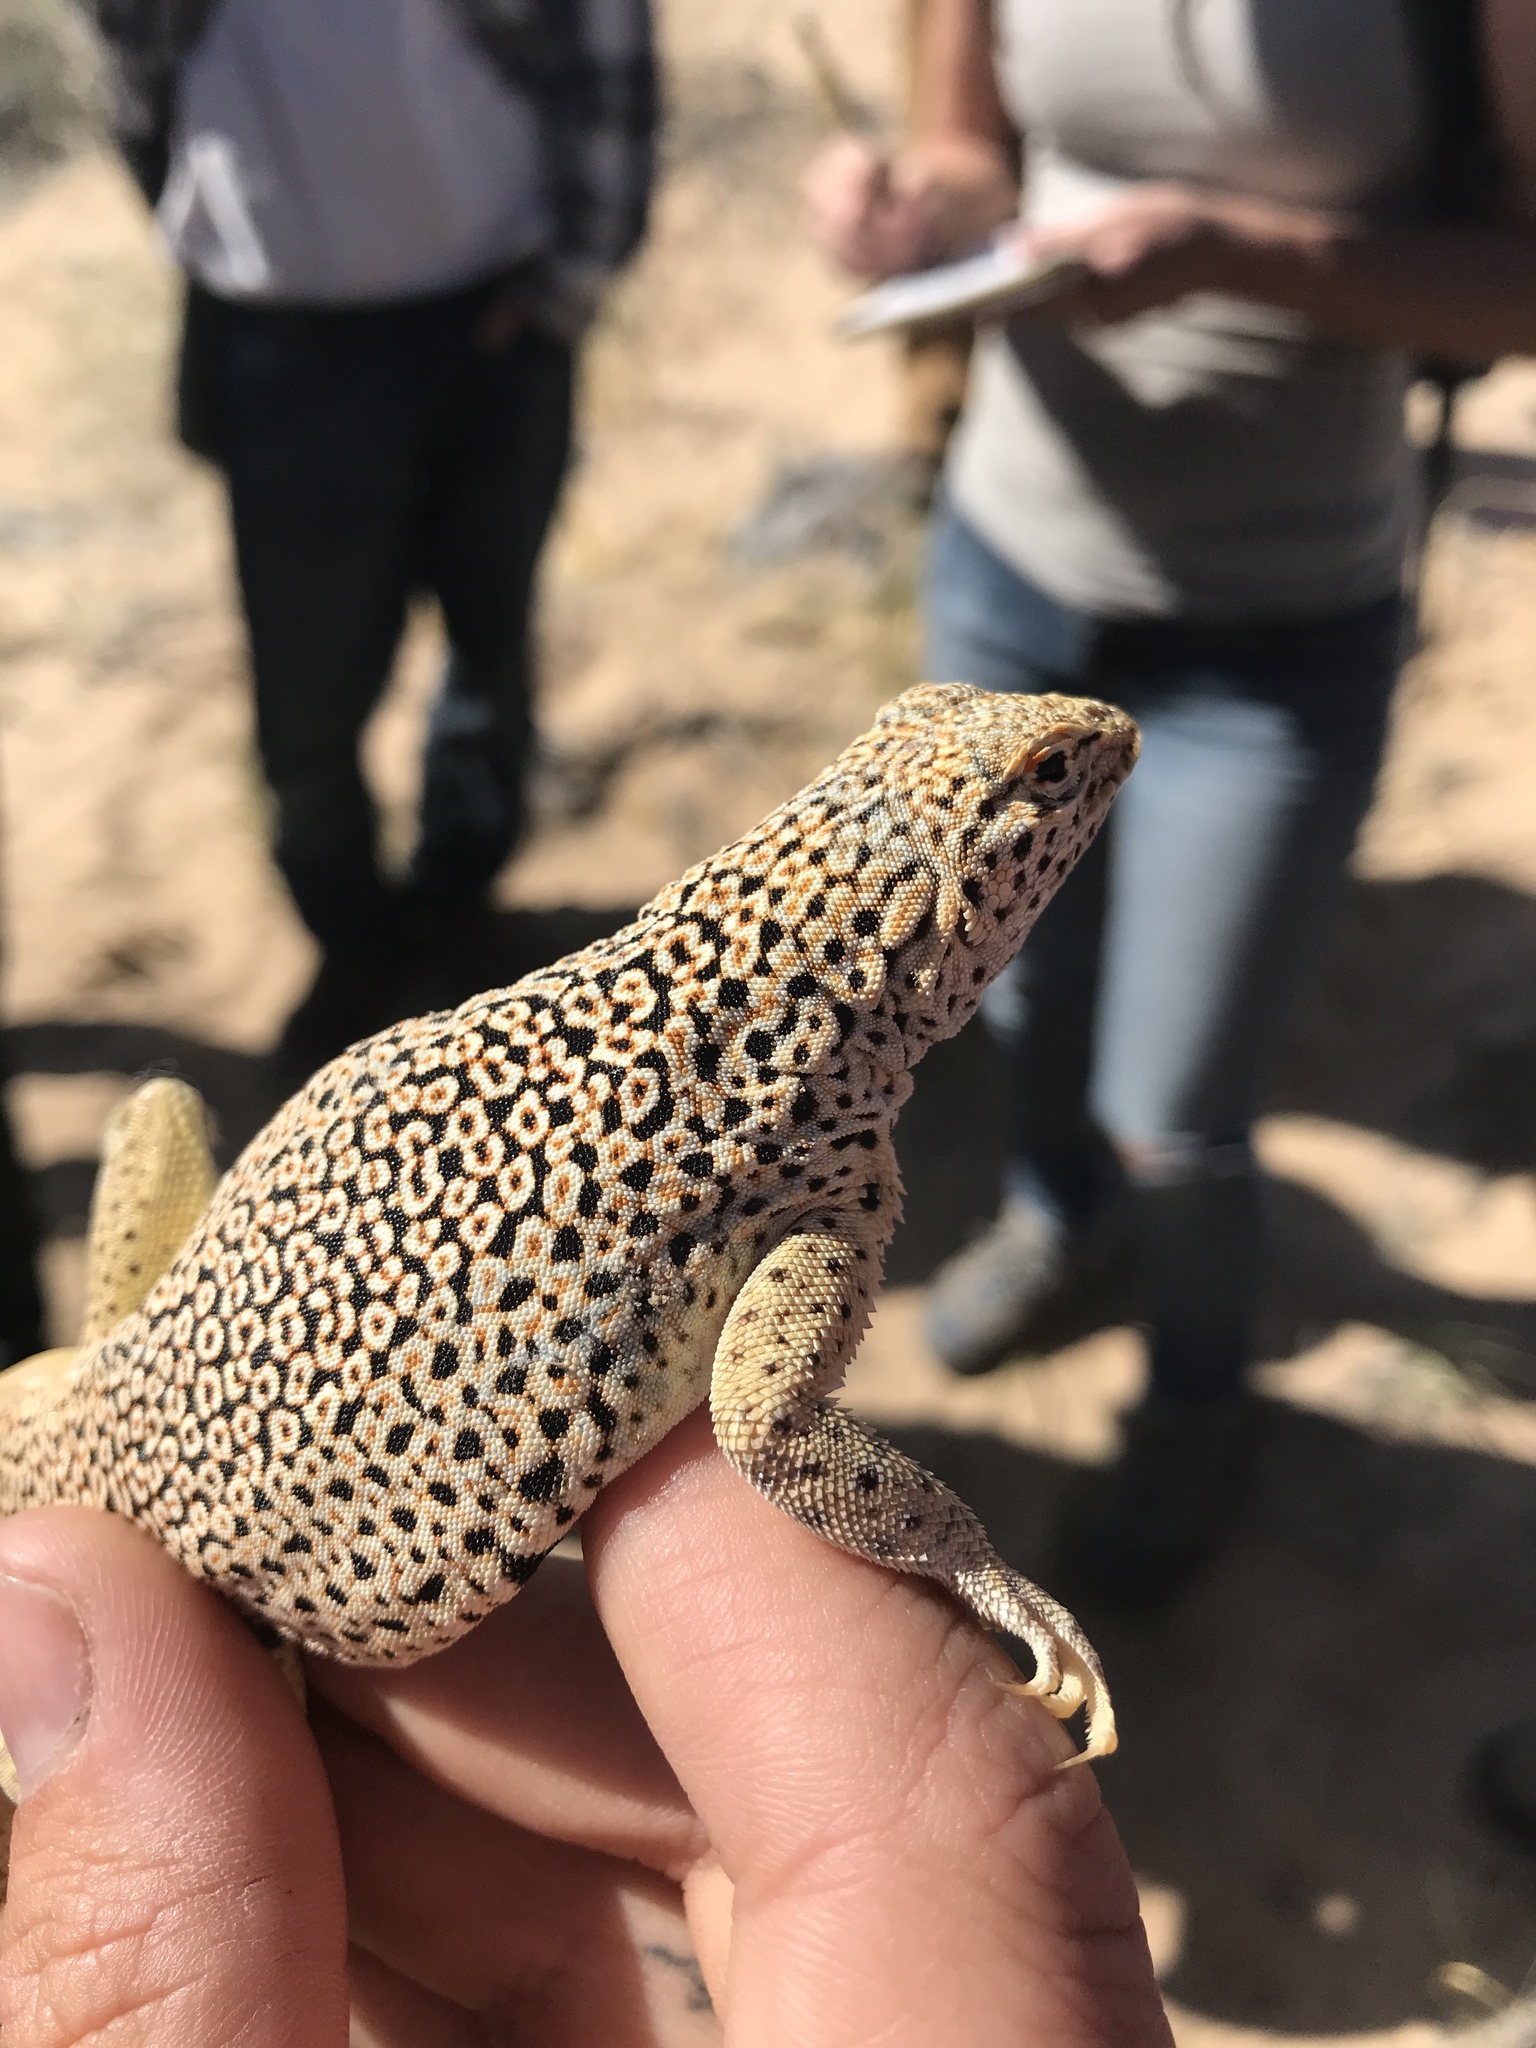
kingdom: Animalia
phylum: Chordata
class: Squamata
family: Phrynosomatidae
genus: Uma
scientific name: Uma scoparia
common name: Mojave fringe-toed lizard
